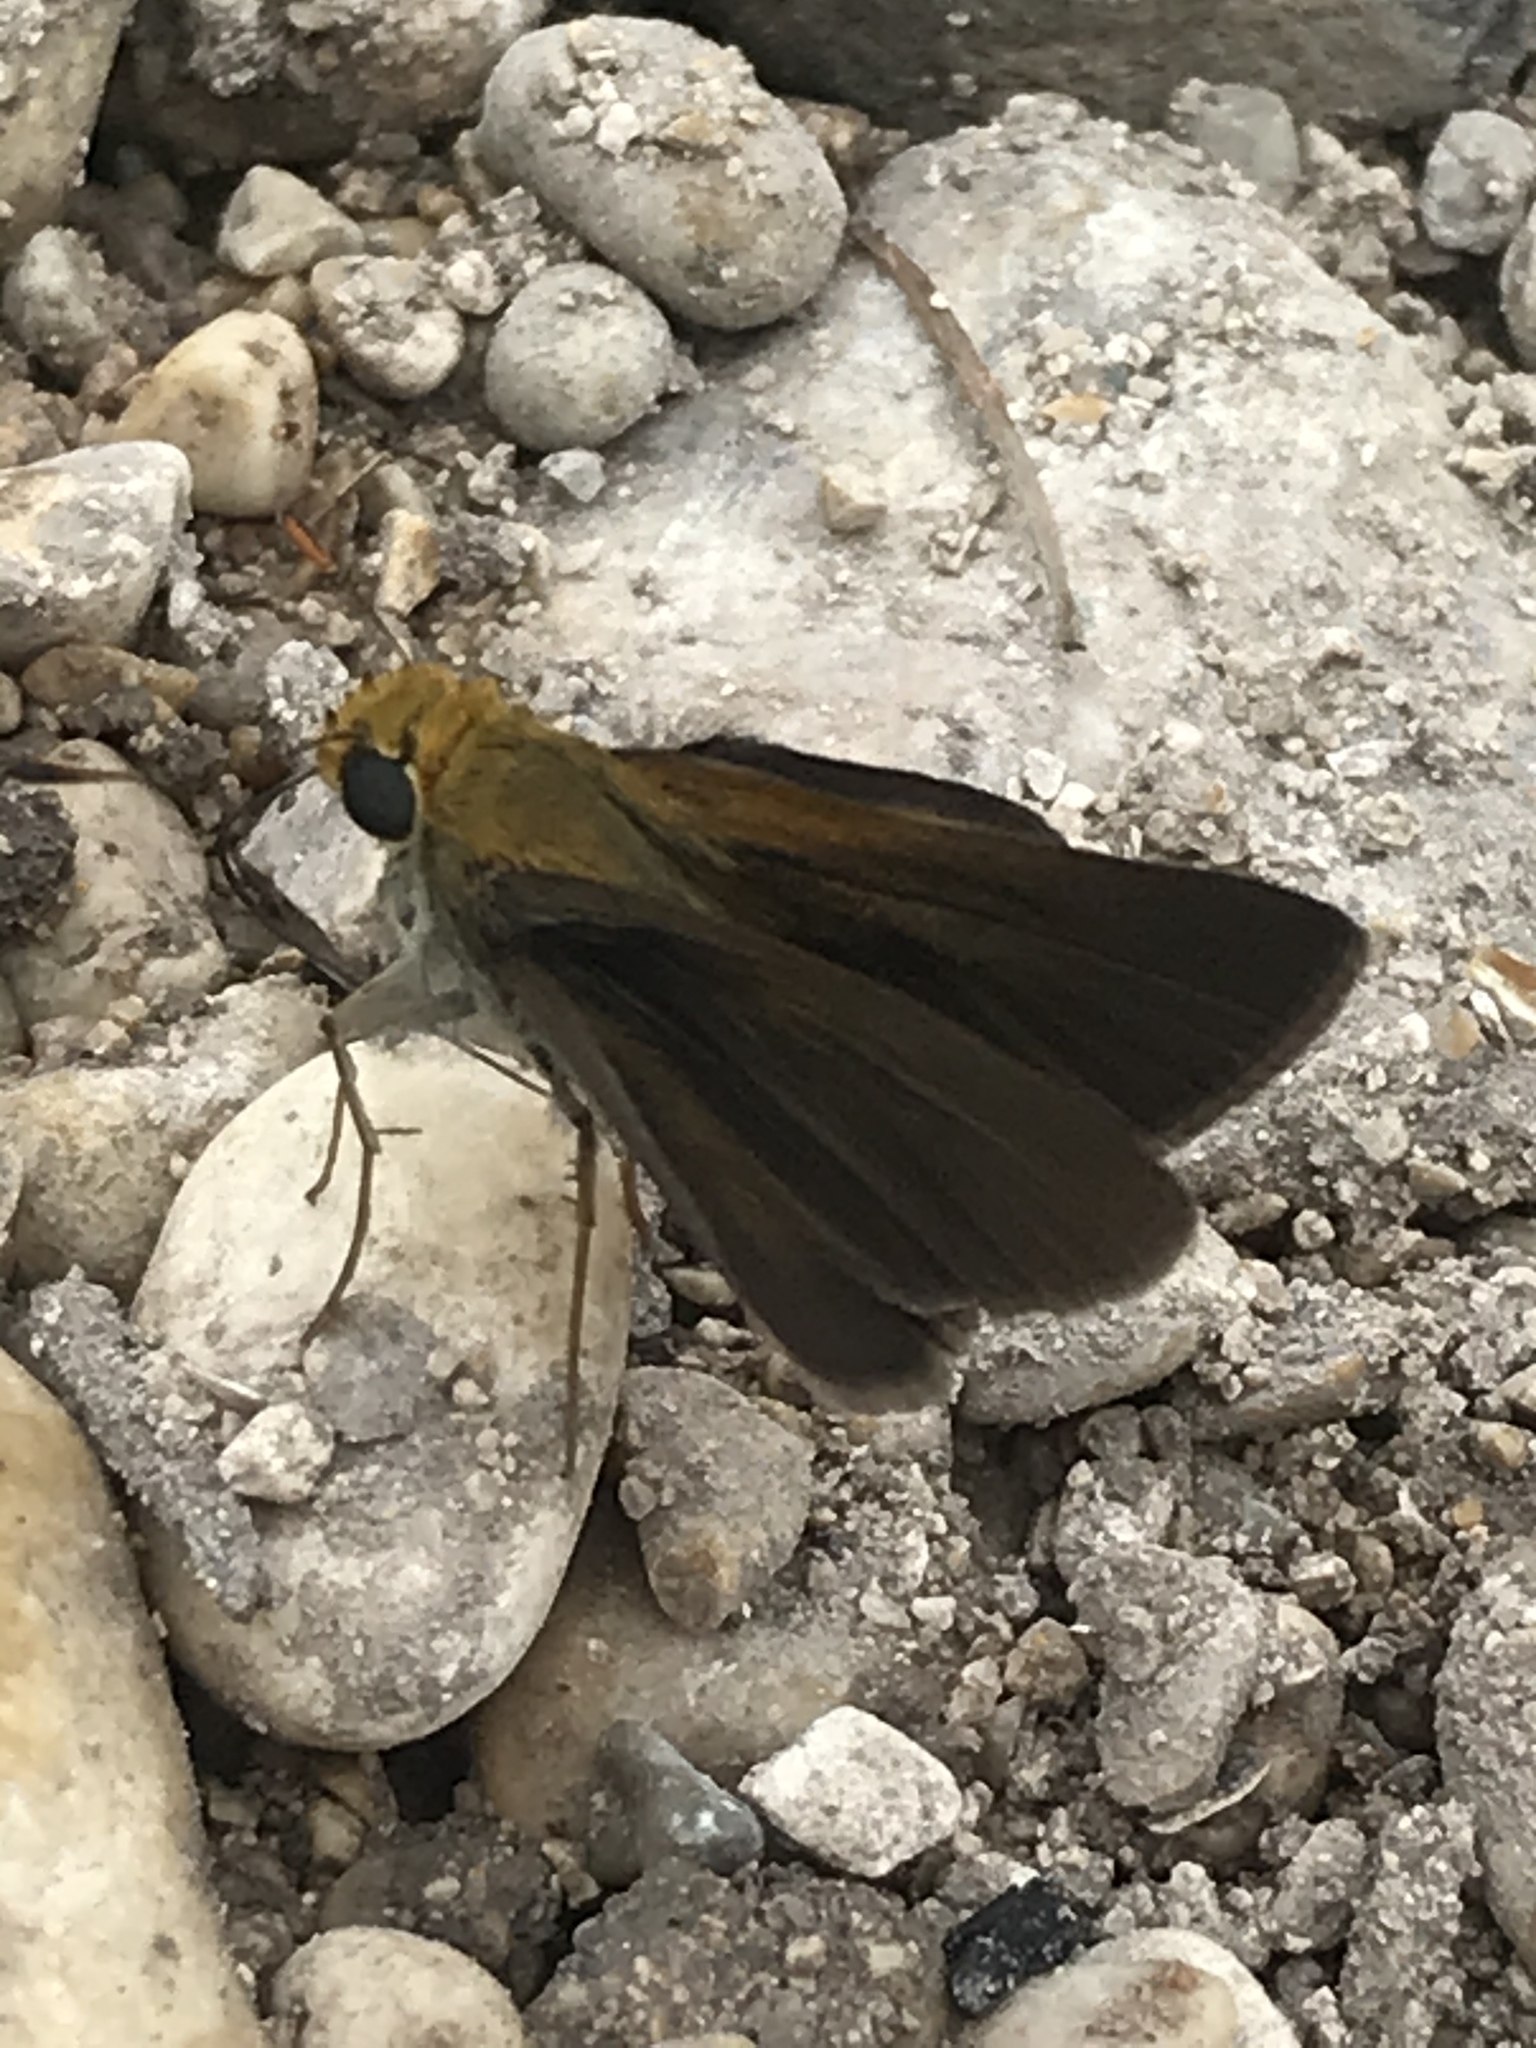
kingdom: Animalia
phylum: Arthropoda
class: Insecta
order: Lepidoptera
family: Hesperiidae
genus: Euphyes
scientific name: Euphyes vestris
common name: Dun skipper
